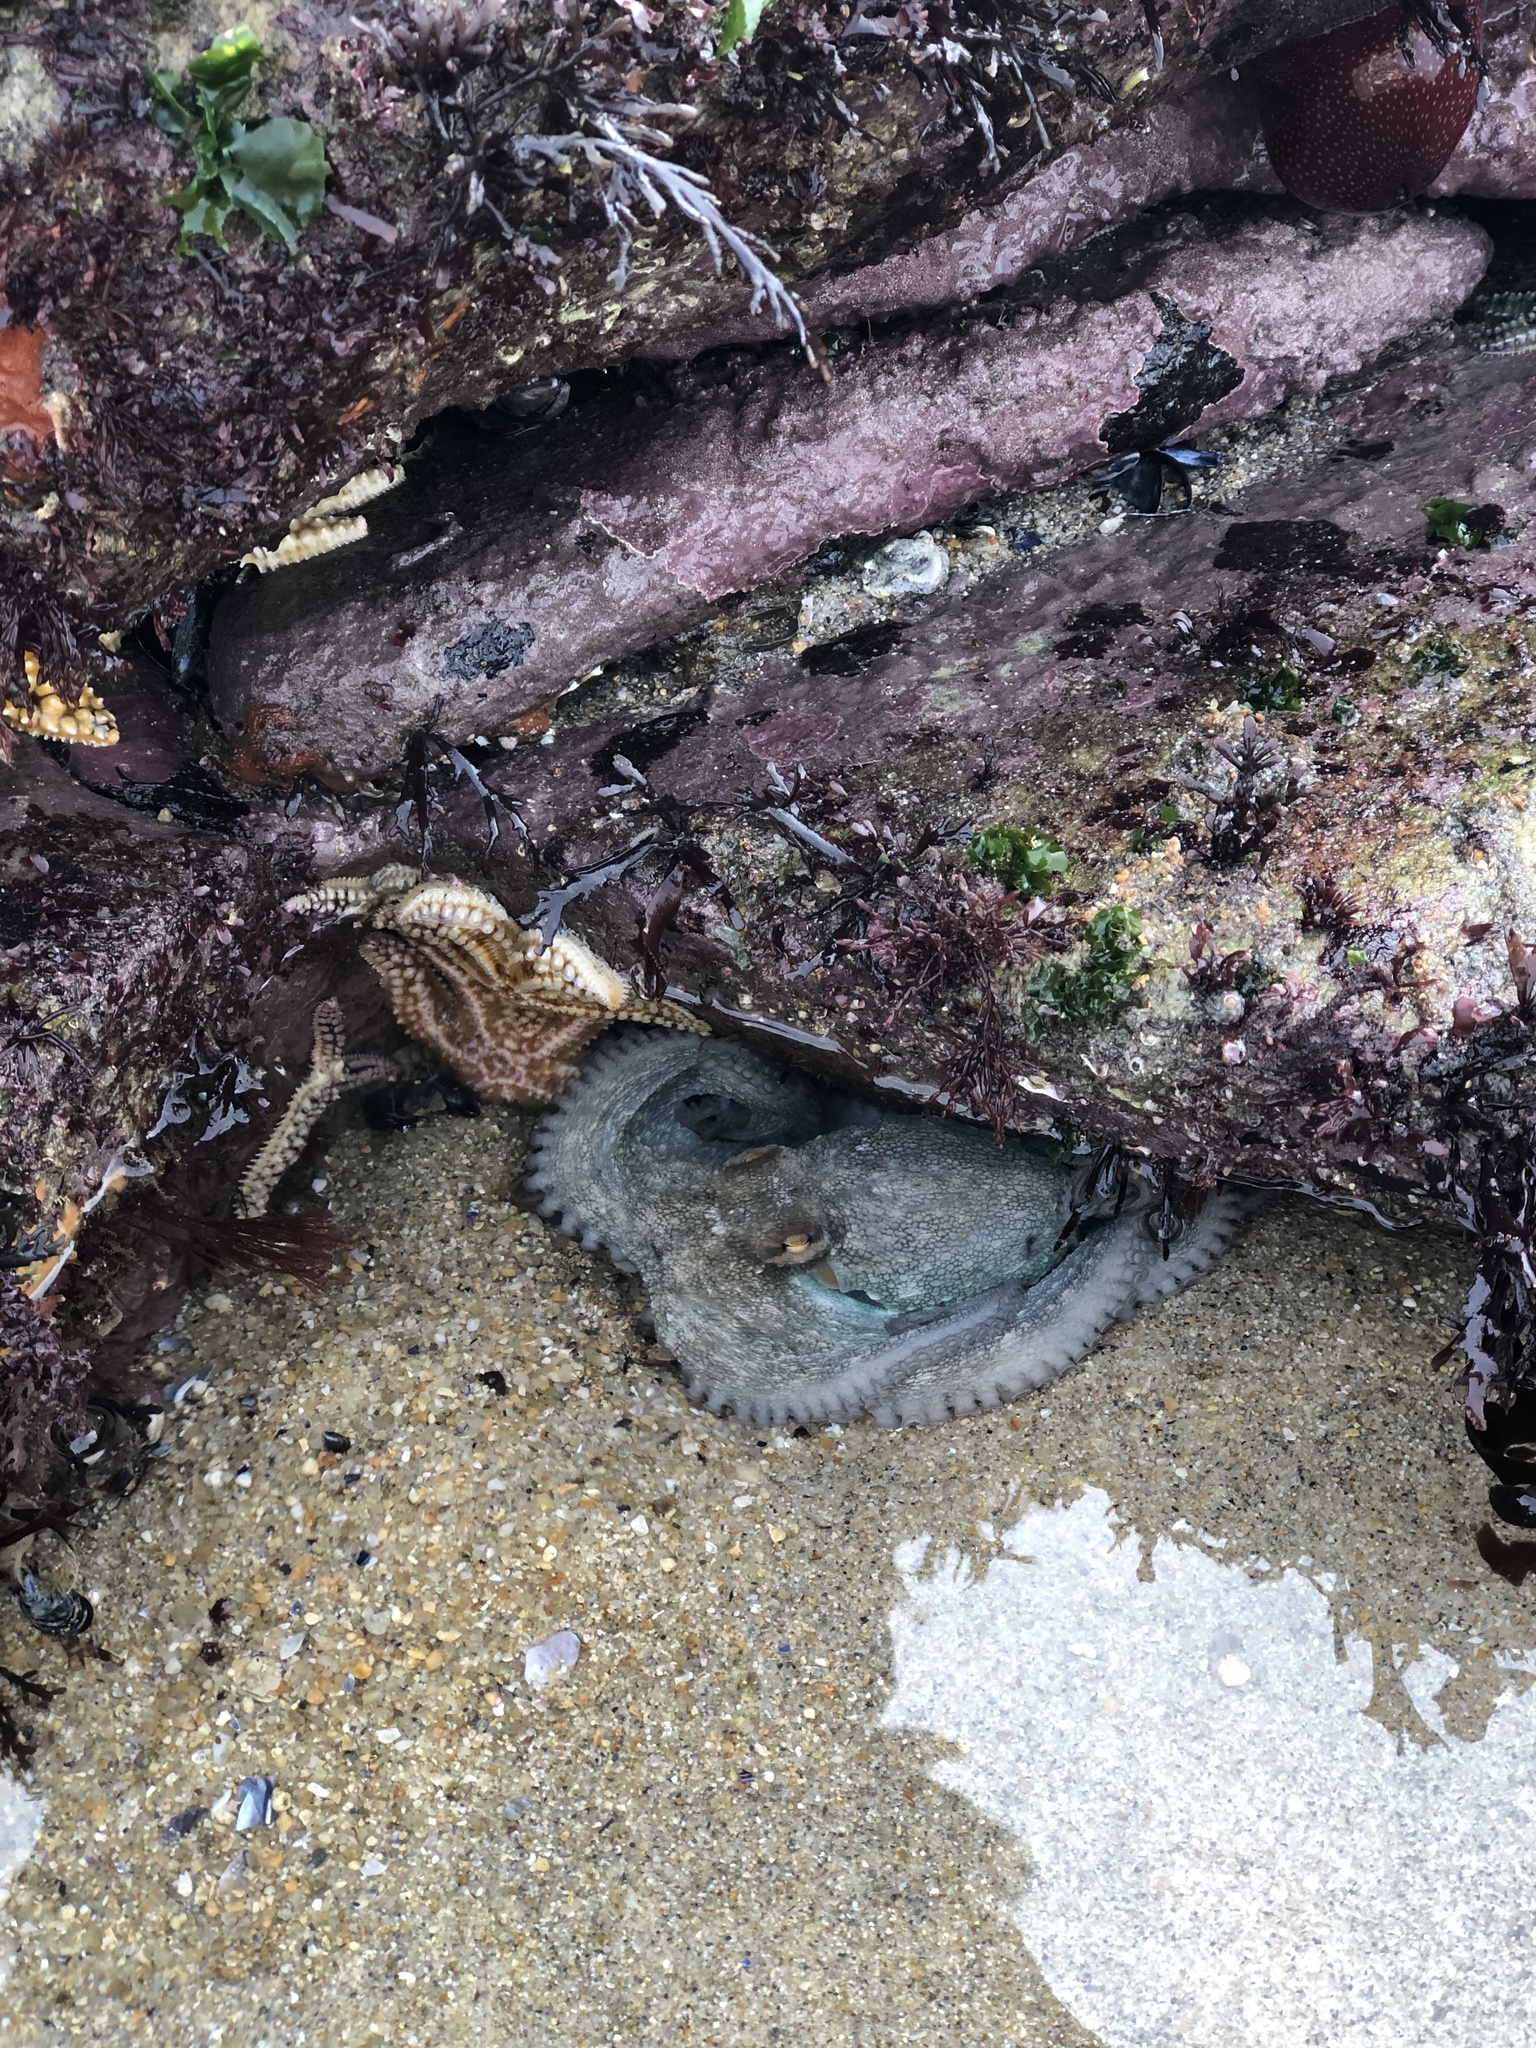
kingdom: Animalia
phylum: Mollusca
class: Cephalopoda
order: Octopoda
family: Octopodidae
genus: Octopus
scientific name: Octopus vulgaris
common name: Common octopus
